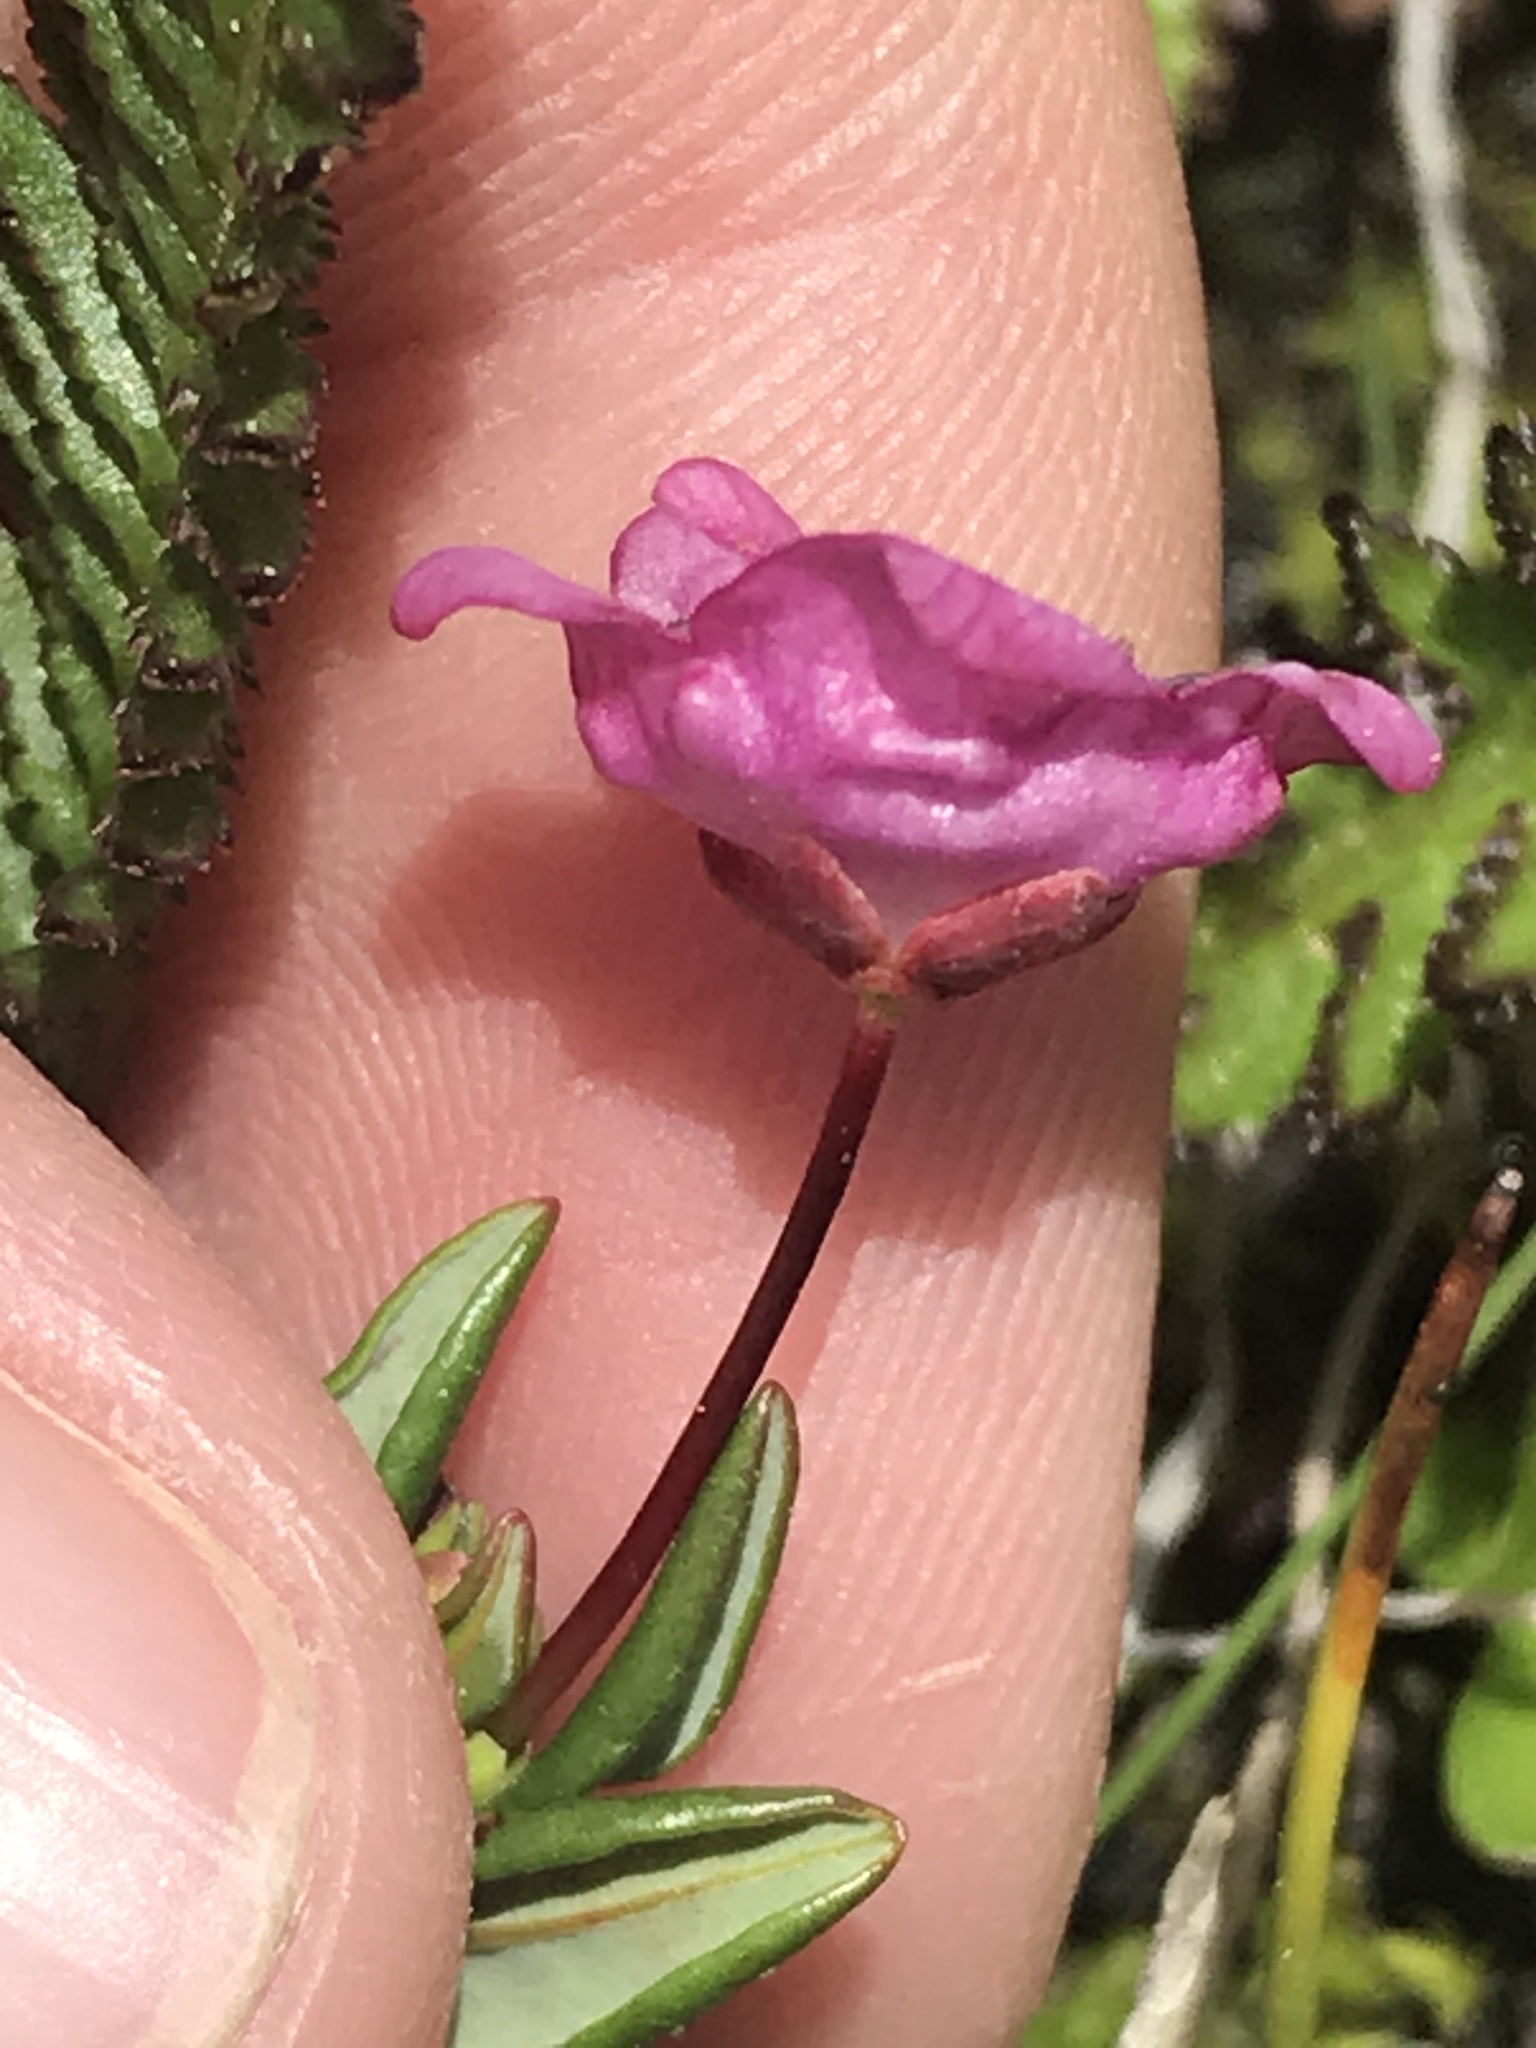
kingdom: Plantae
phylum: Tracheophyta
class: Magnoliopsida
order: Ericales
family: Ericaceae
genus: Kalmia
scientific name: Kalmia microphylla
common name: Alpine bog laurel
